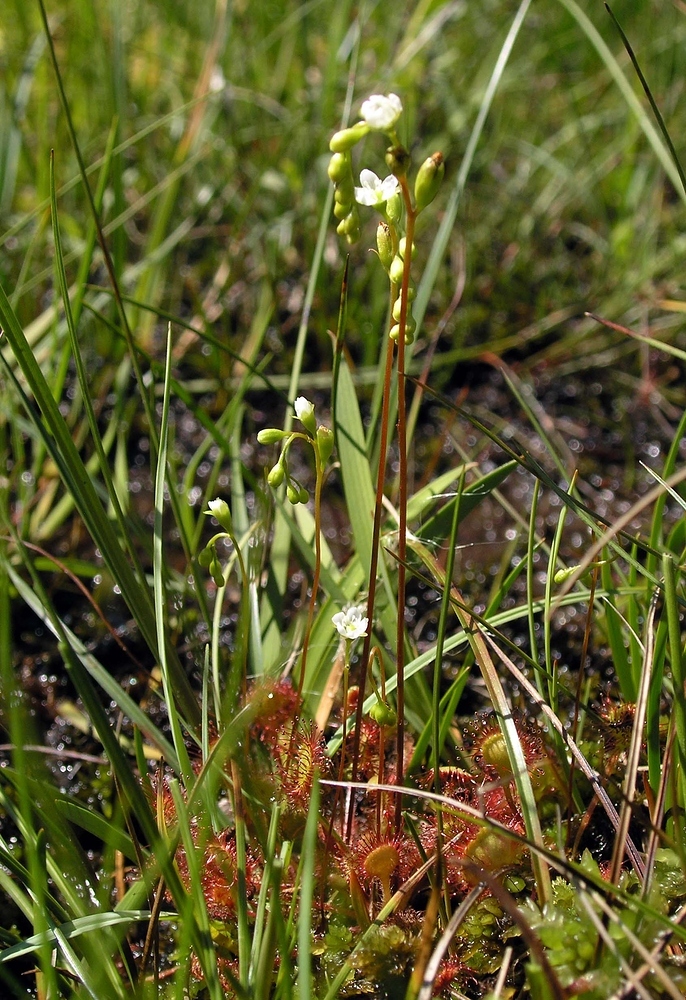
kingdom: Plantae
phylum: Tracheophyta
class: Magnoliopsida
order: Caryophyllales
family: Droseraceae
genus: Drosera
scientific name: Drosera rotundifolia
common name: Round-leaved sundew
